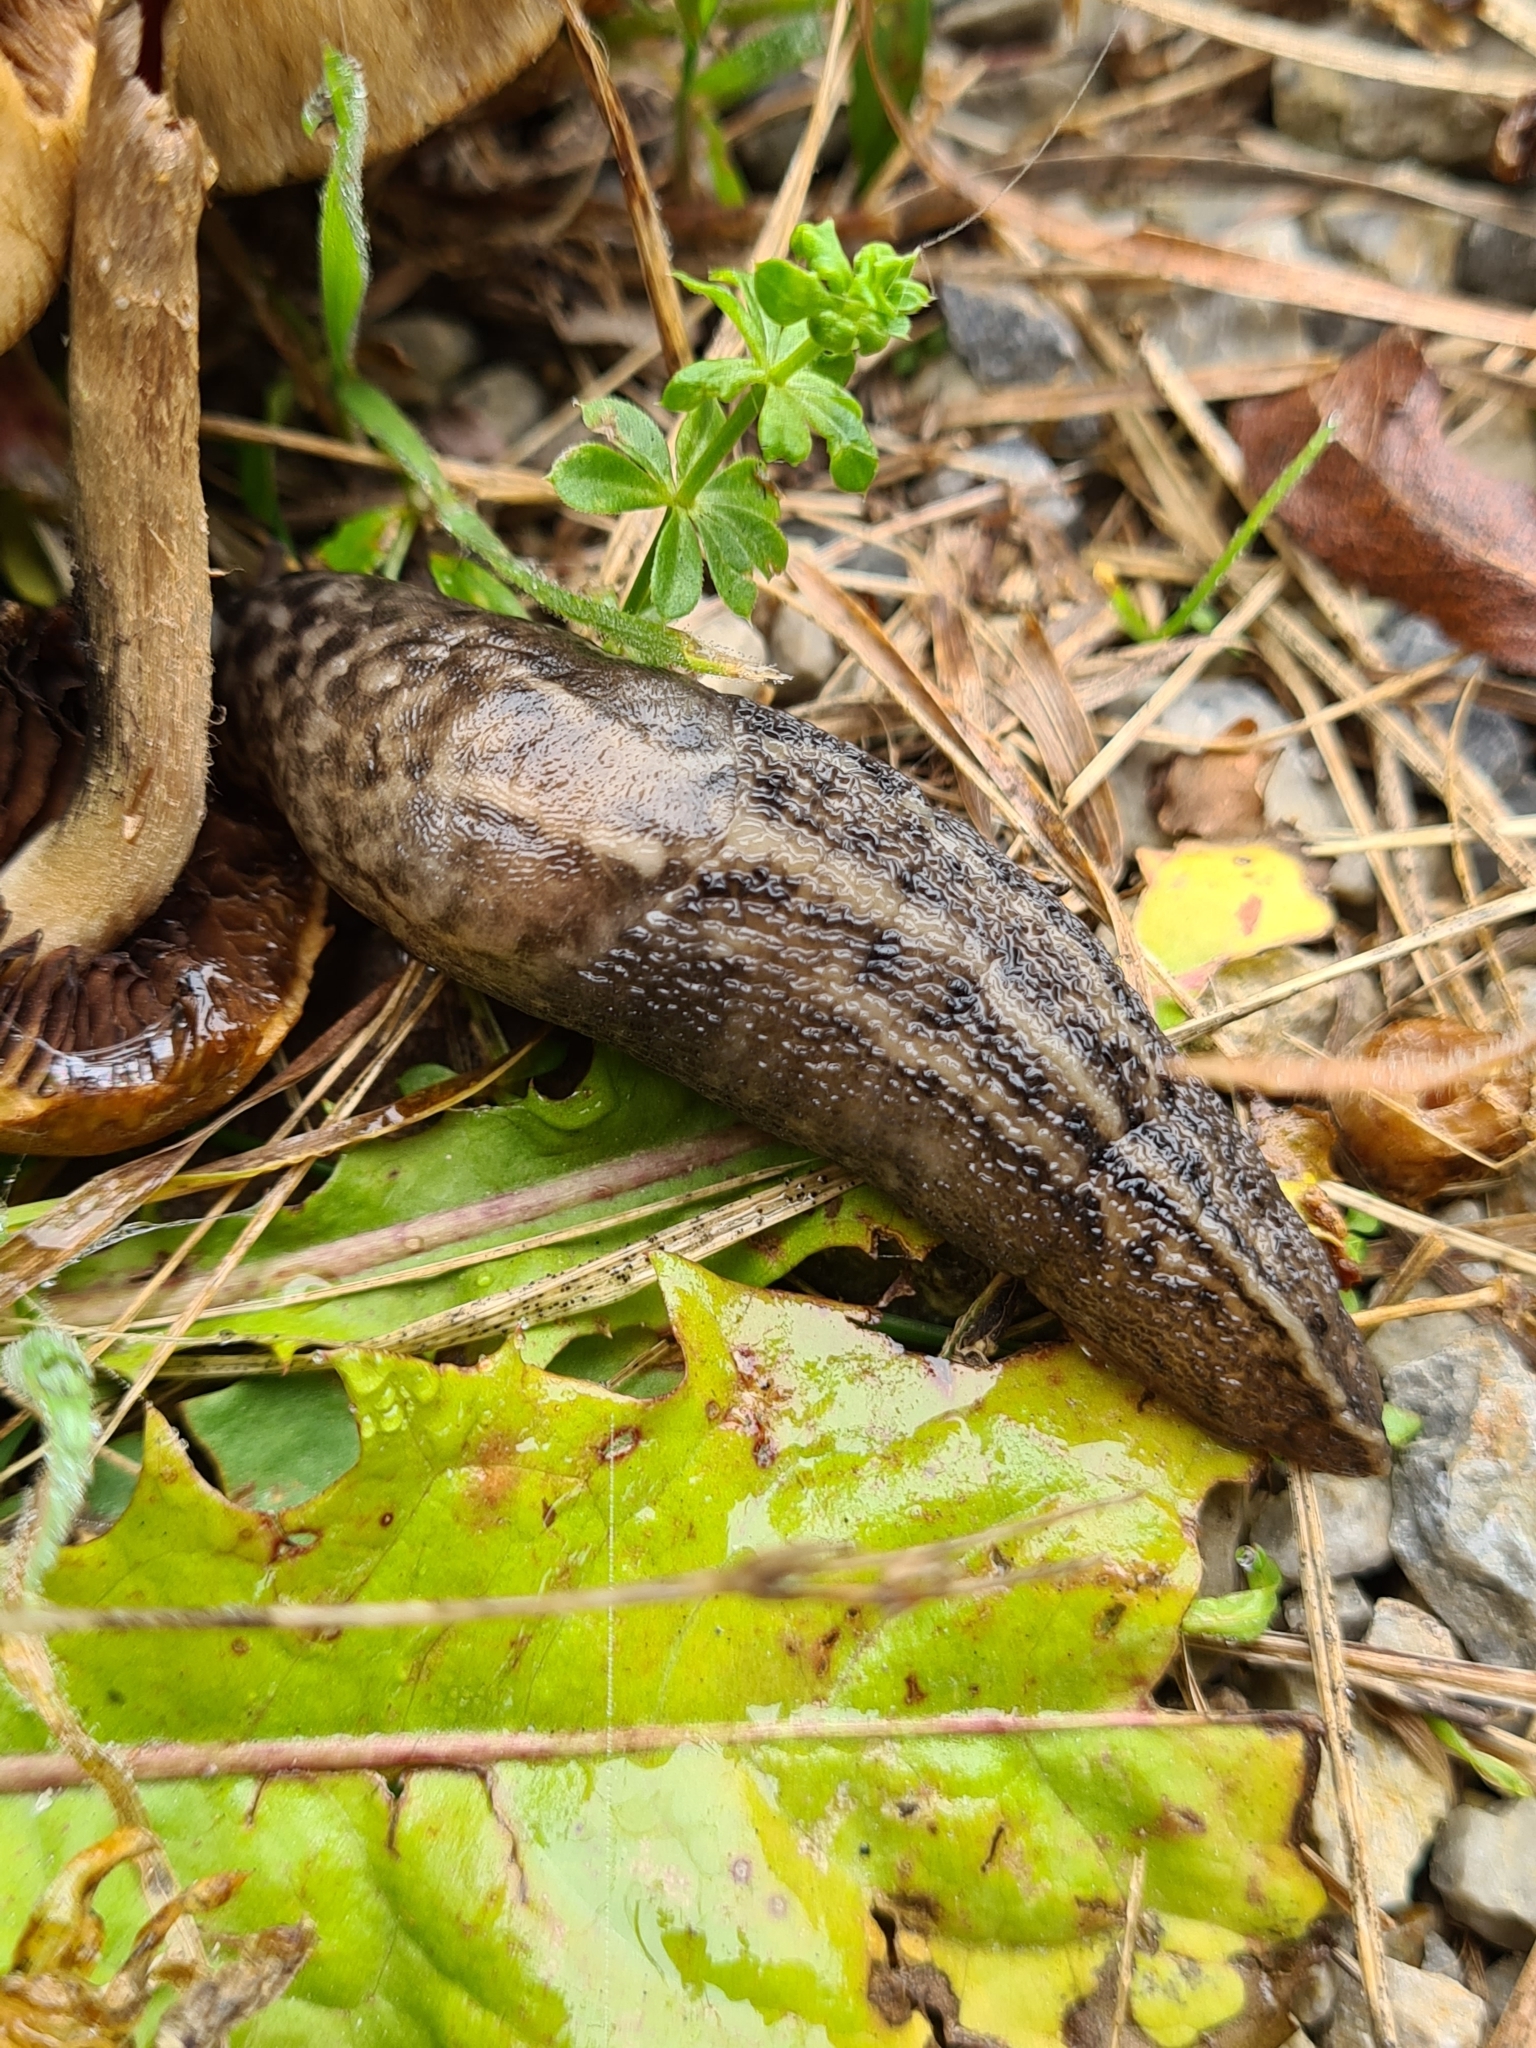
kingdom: Animalia
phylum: Mollusca
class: Gastropoda
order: Stylommatophora
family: Limacidae
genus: Limax
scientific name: Limax maximus
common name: Great grey slug
